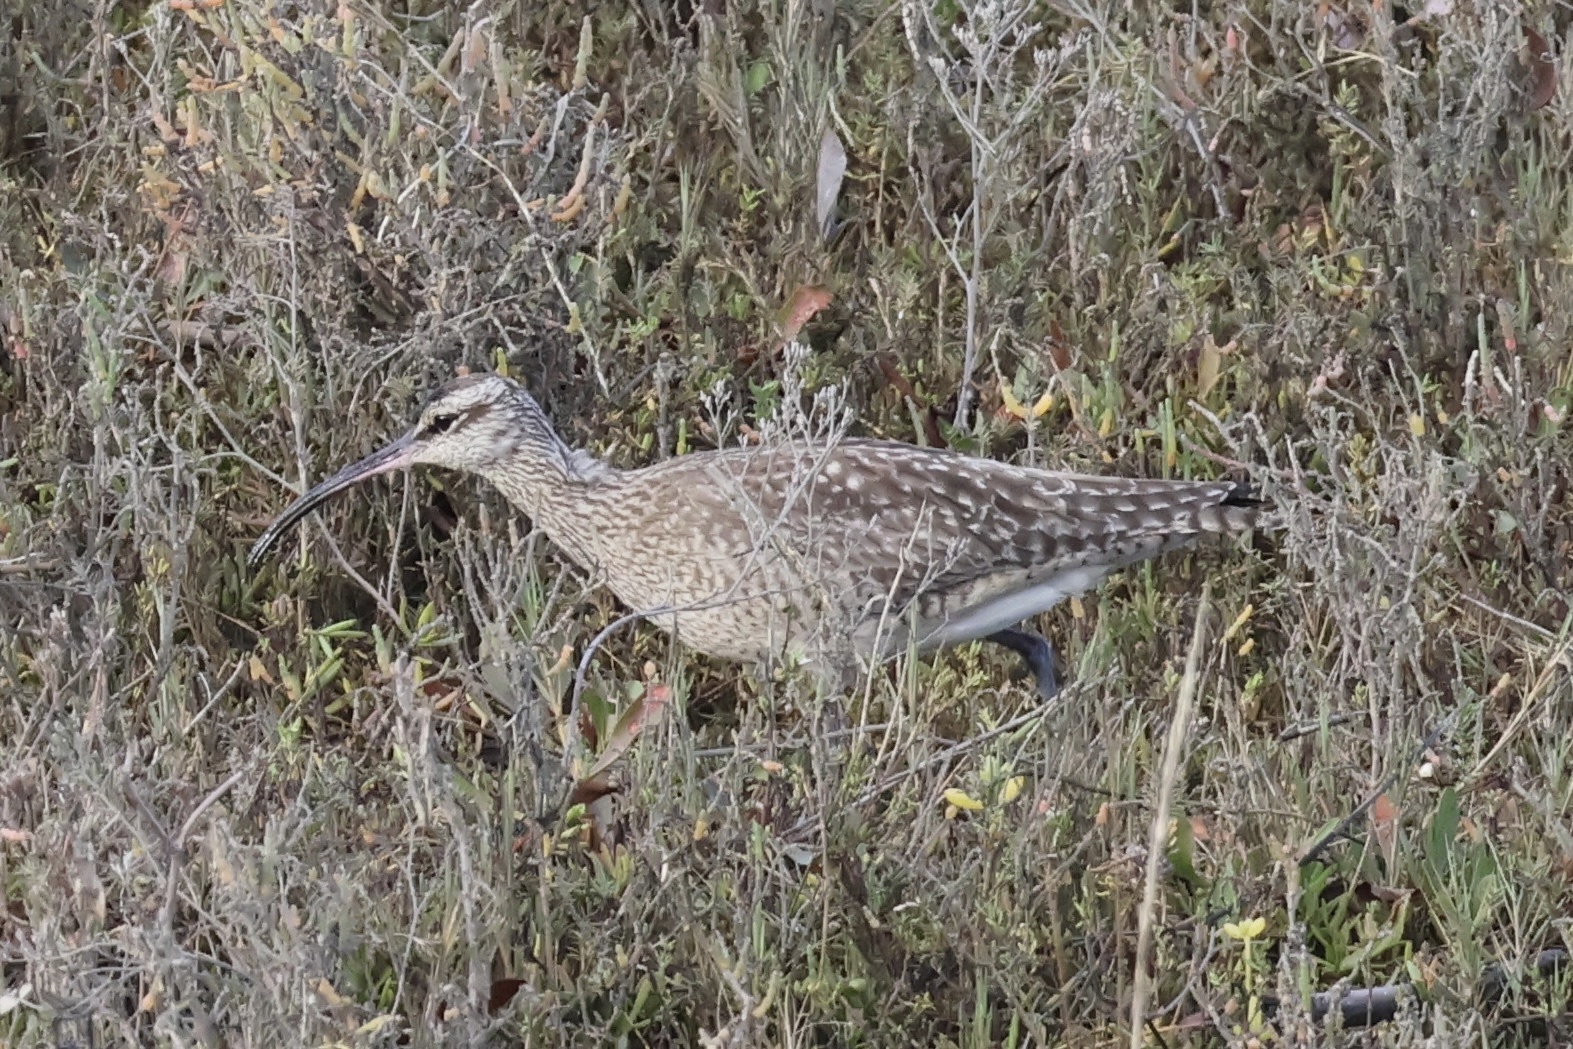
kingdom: Animalia
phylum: Chordata
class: Aves
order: Charadriiformes
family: Scolopacidae
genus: Numenius
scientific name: Numenius phaeopus
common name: Whimbrel
